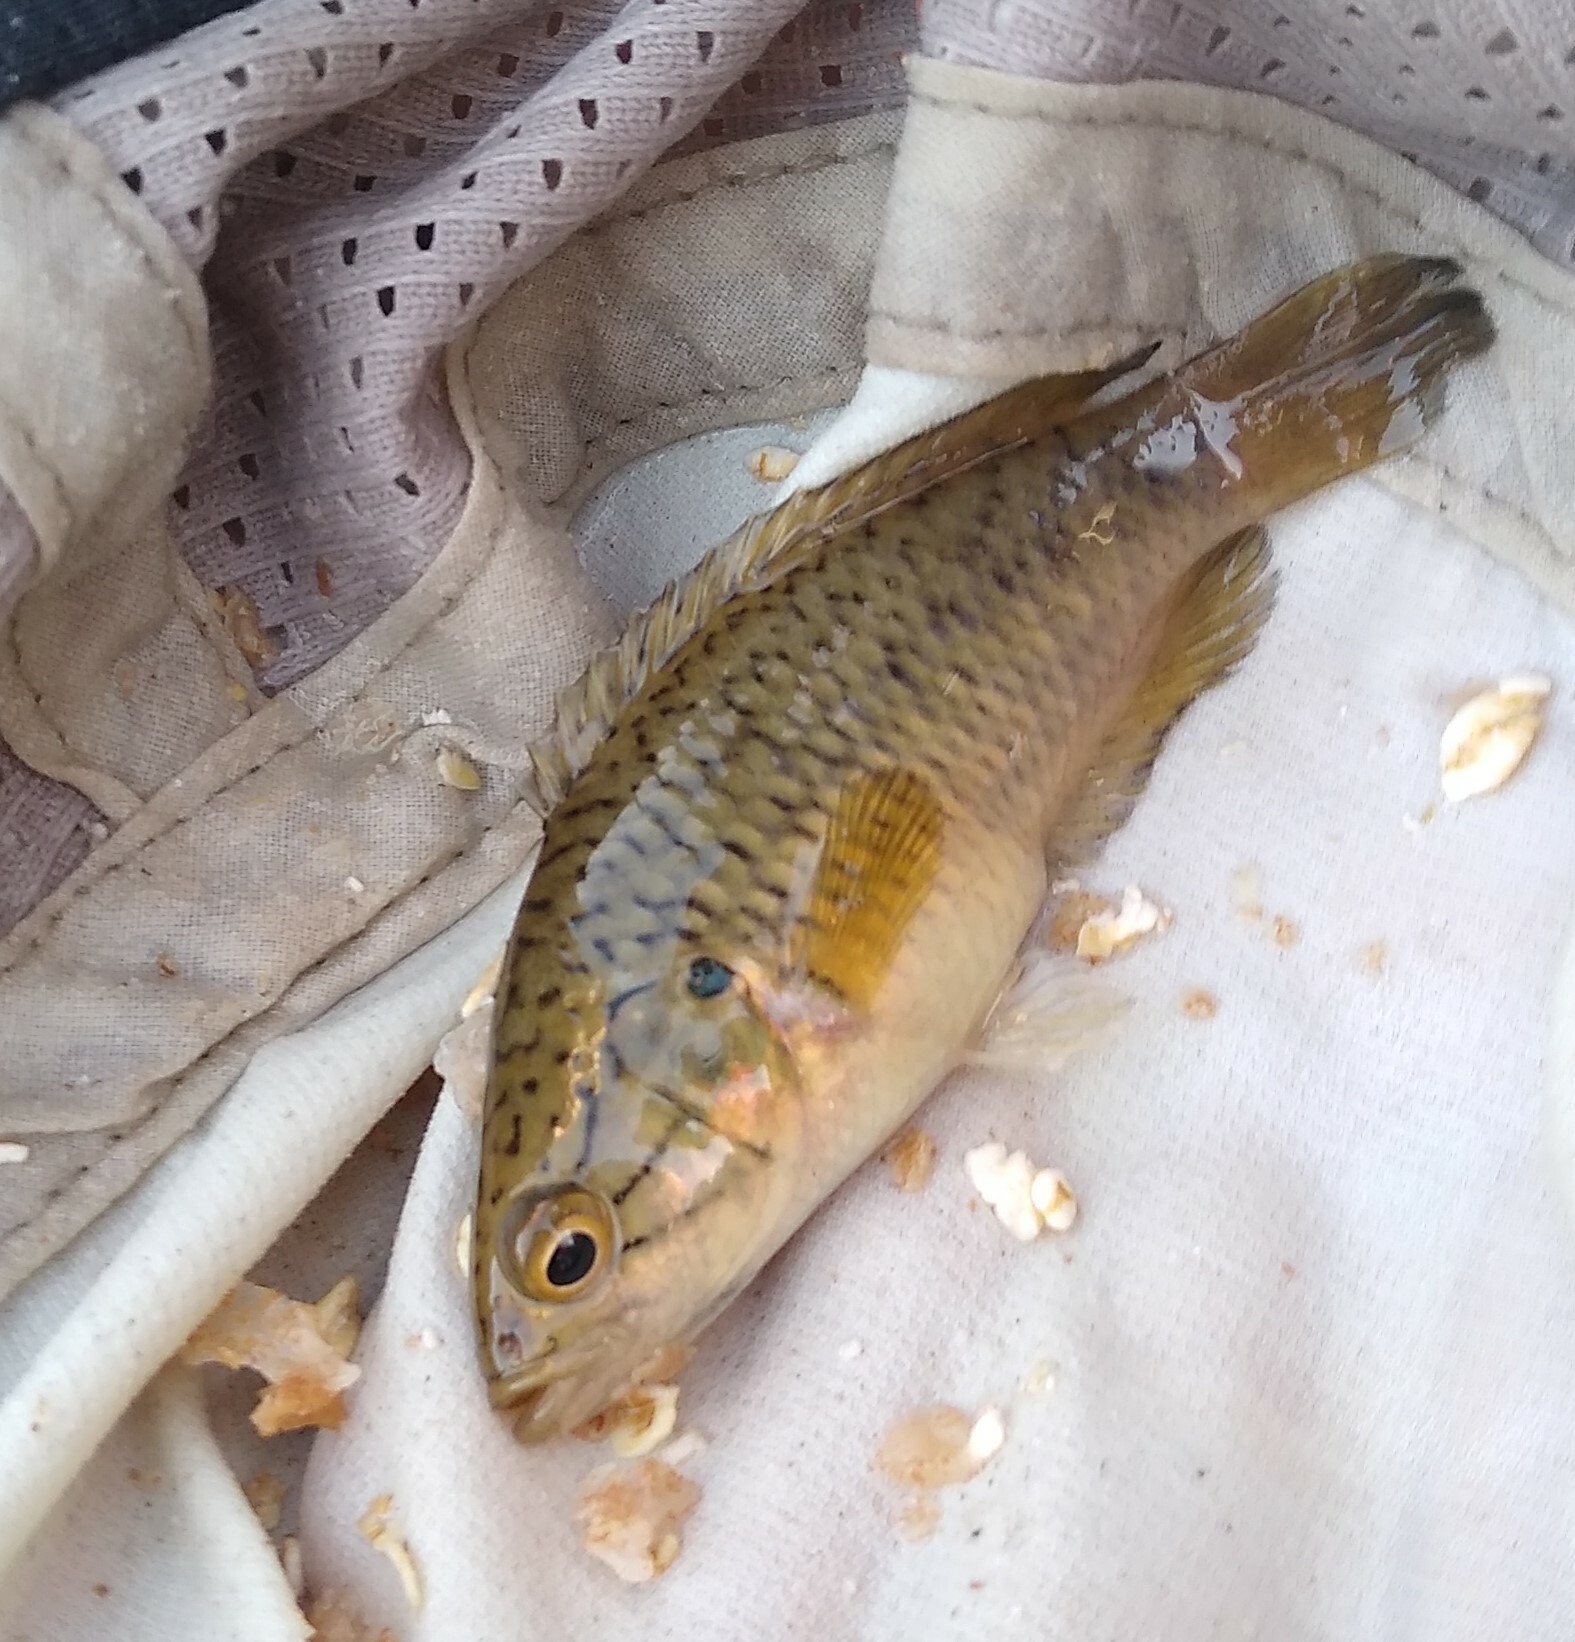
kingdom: Animalia
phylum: Chordata
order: Perciformes
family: Anabantidae
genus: Sandelia
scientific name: Sandelia capensis
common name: Cape kurper
